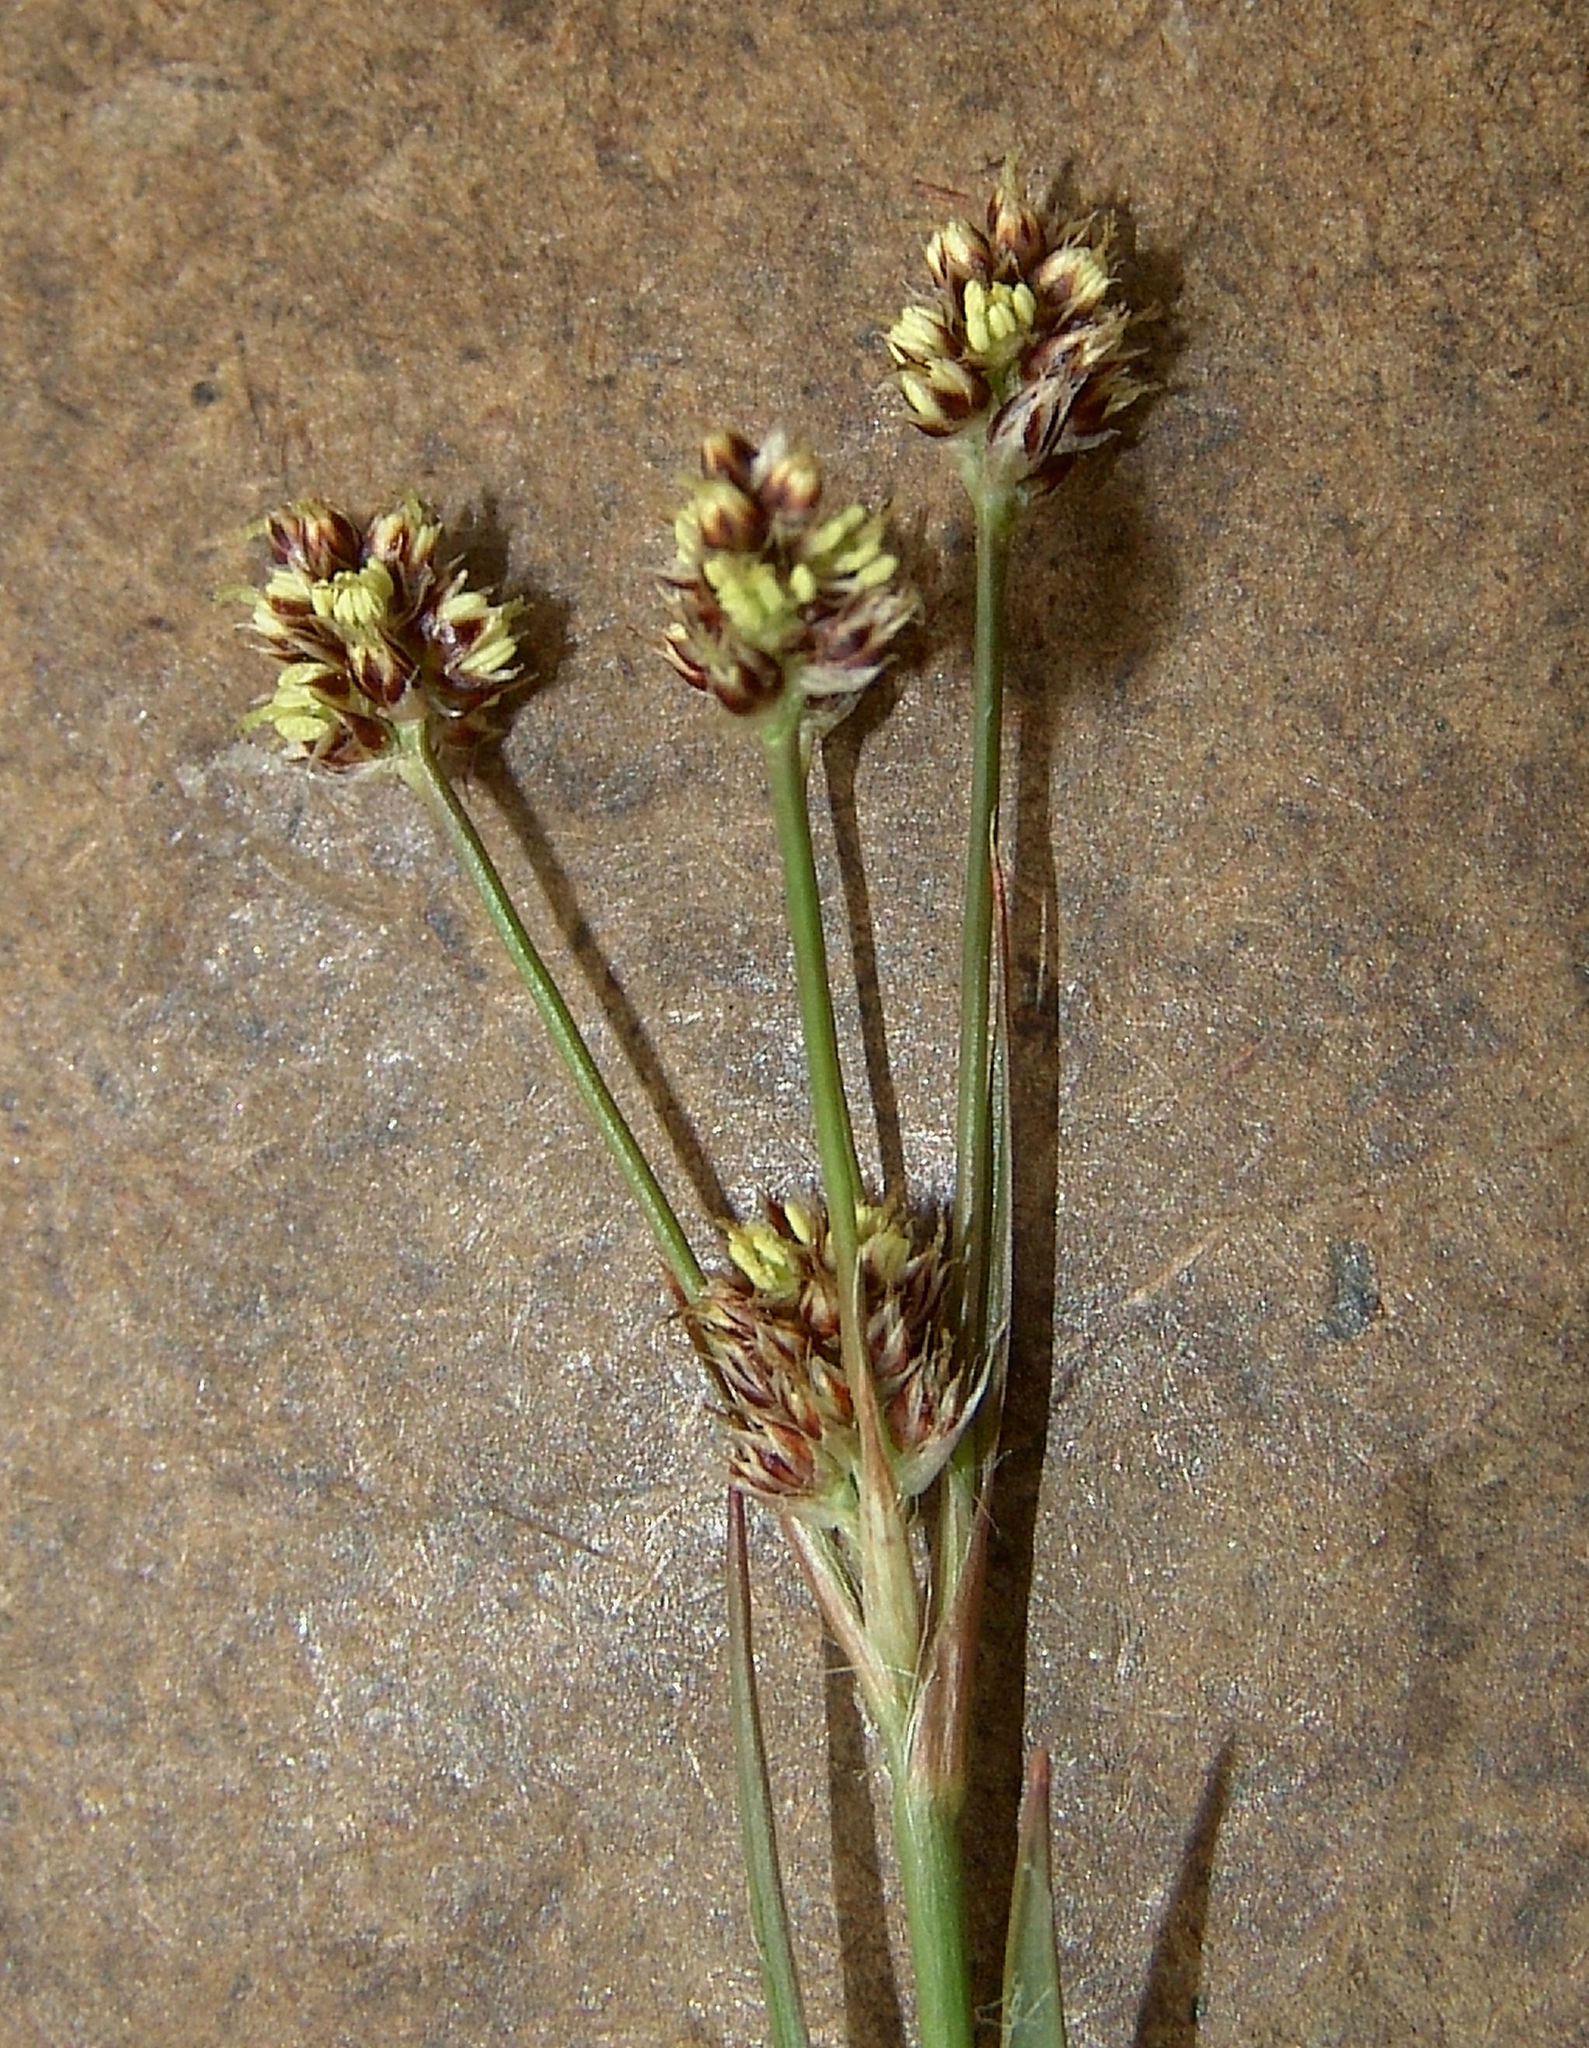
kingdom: Plantae
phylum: Tracheophyta
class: Liliopsida
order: Poales
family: Juncaceae
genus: Luzula
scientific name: Luzula echinata
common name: Hedgehog woodrush
